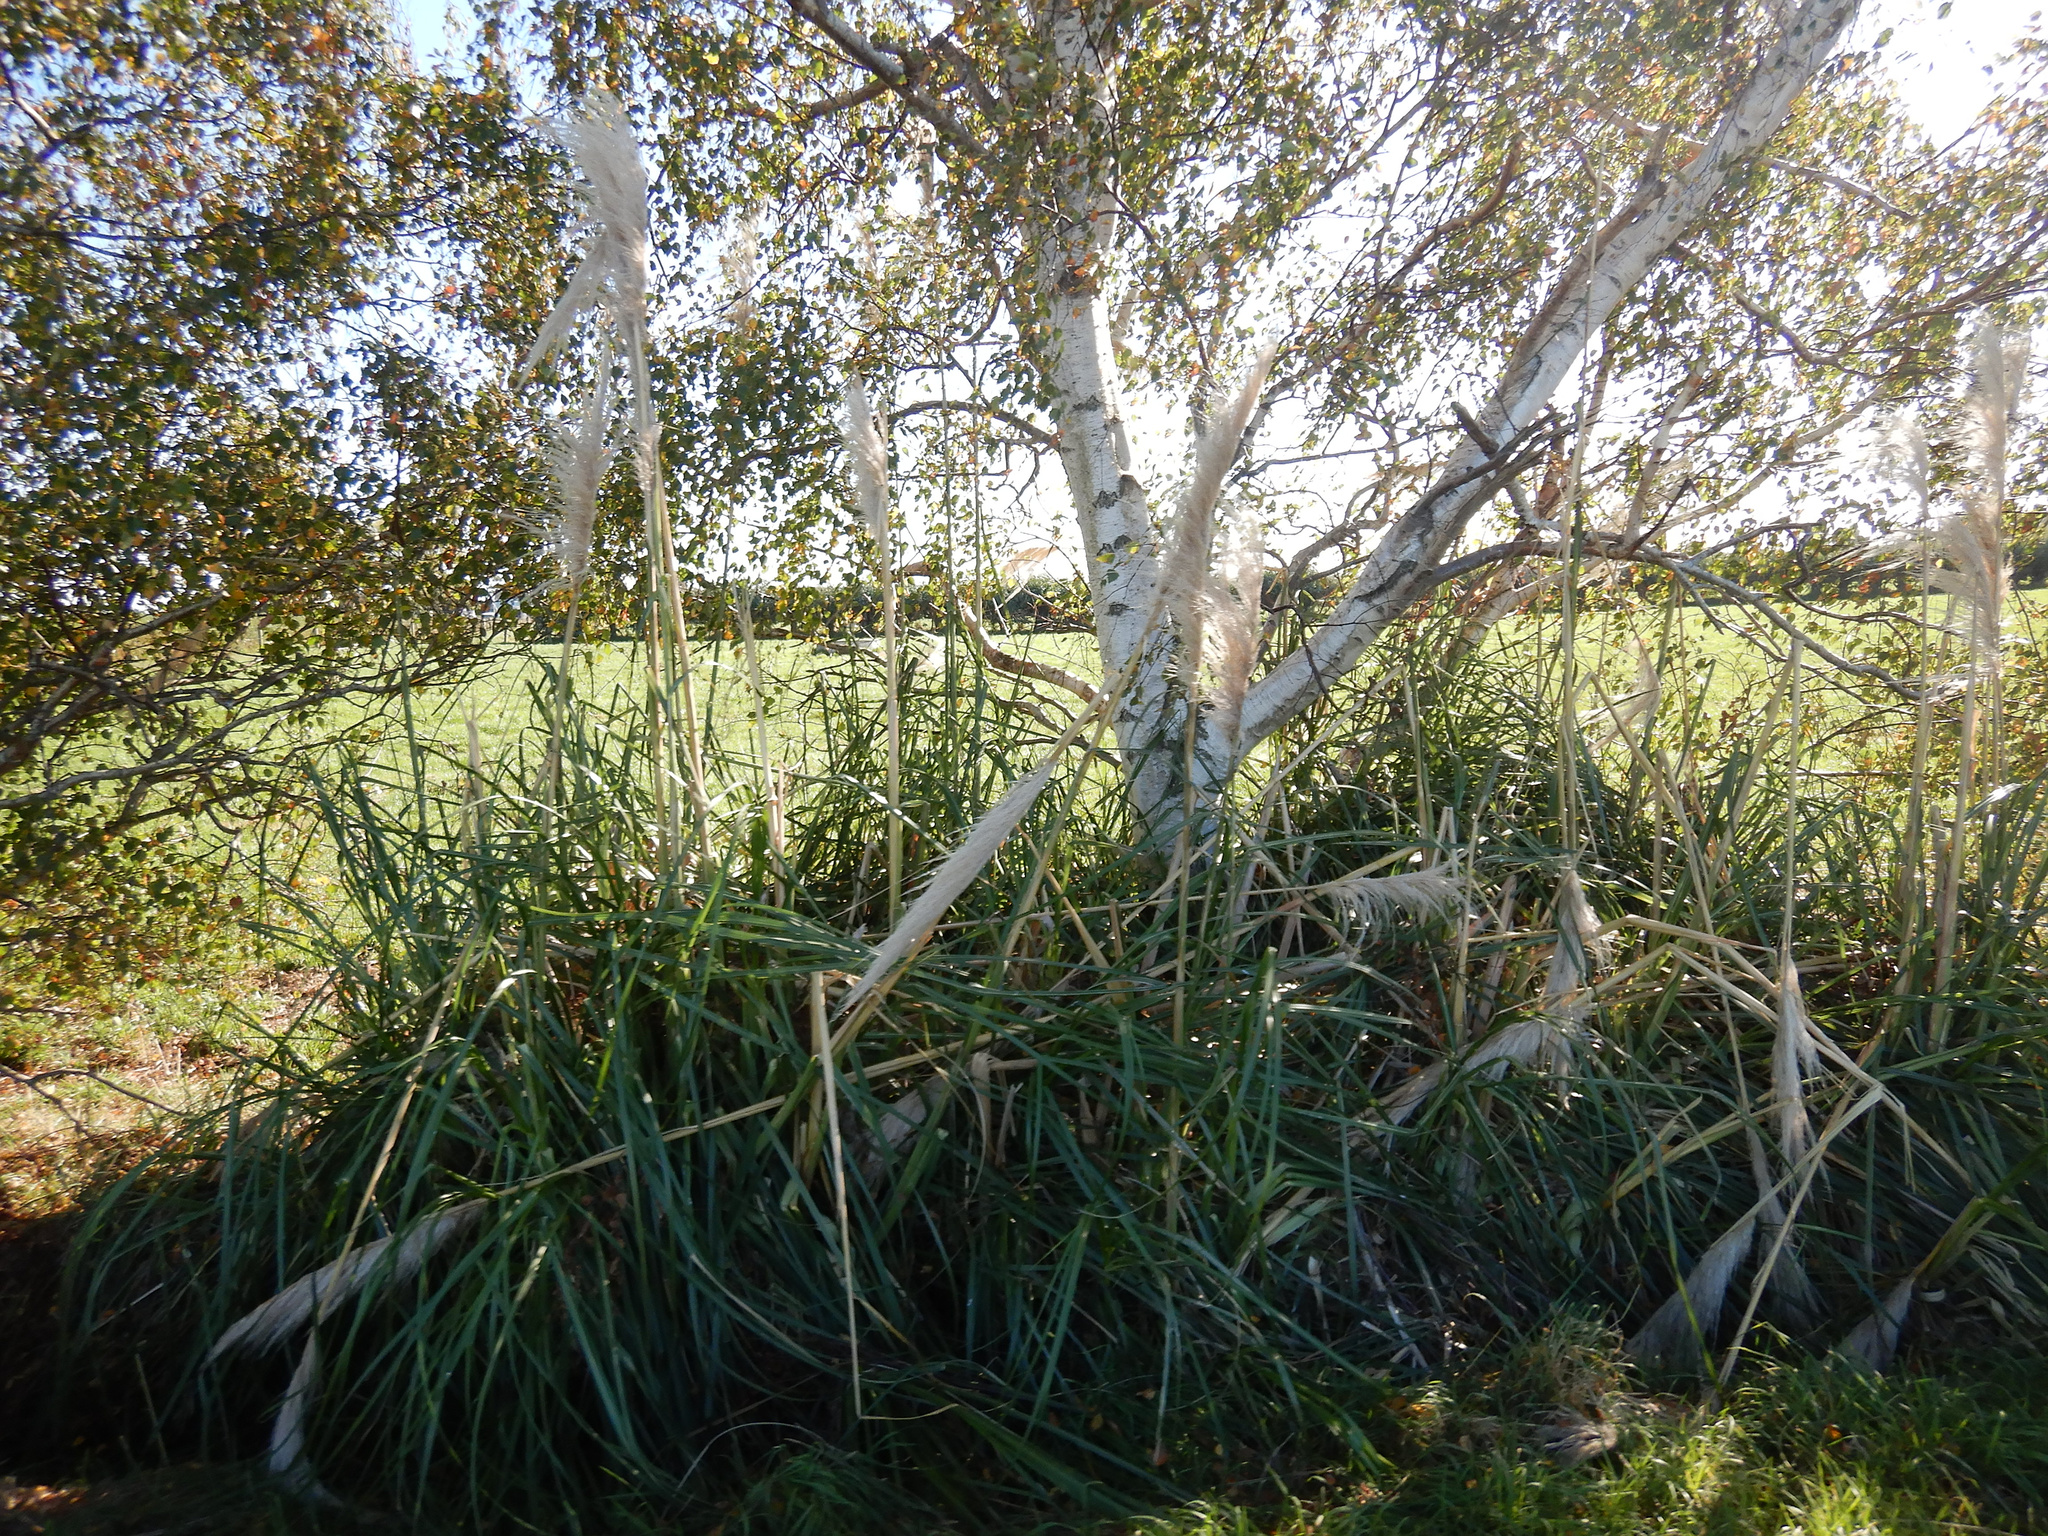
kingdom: Plantae
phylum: Tracheophyta
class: Liliopsida
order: Poales
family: Poaceae
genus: Cortaderia
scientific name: Cortaderia selloana
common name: Uruguayan pampas grass
